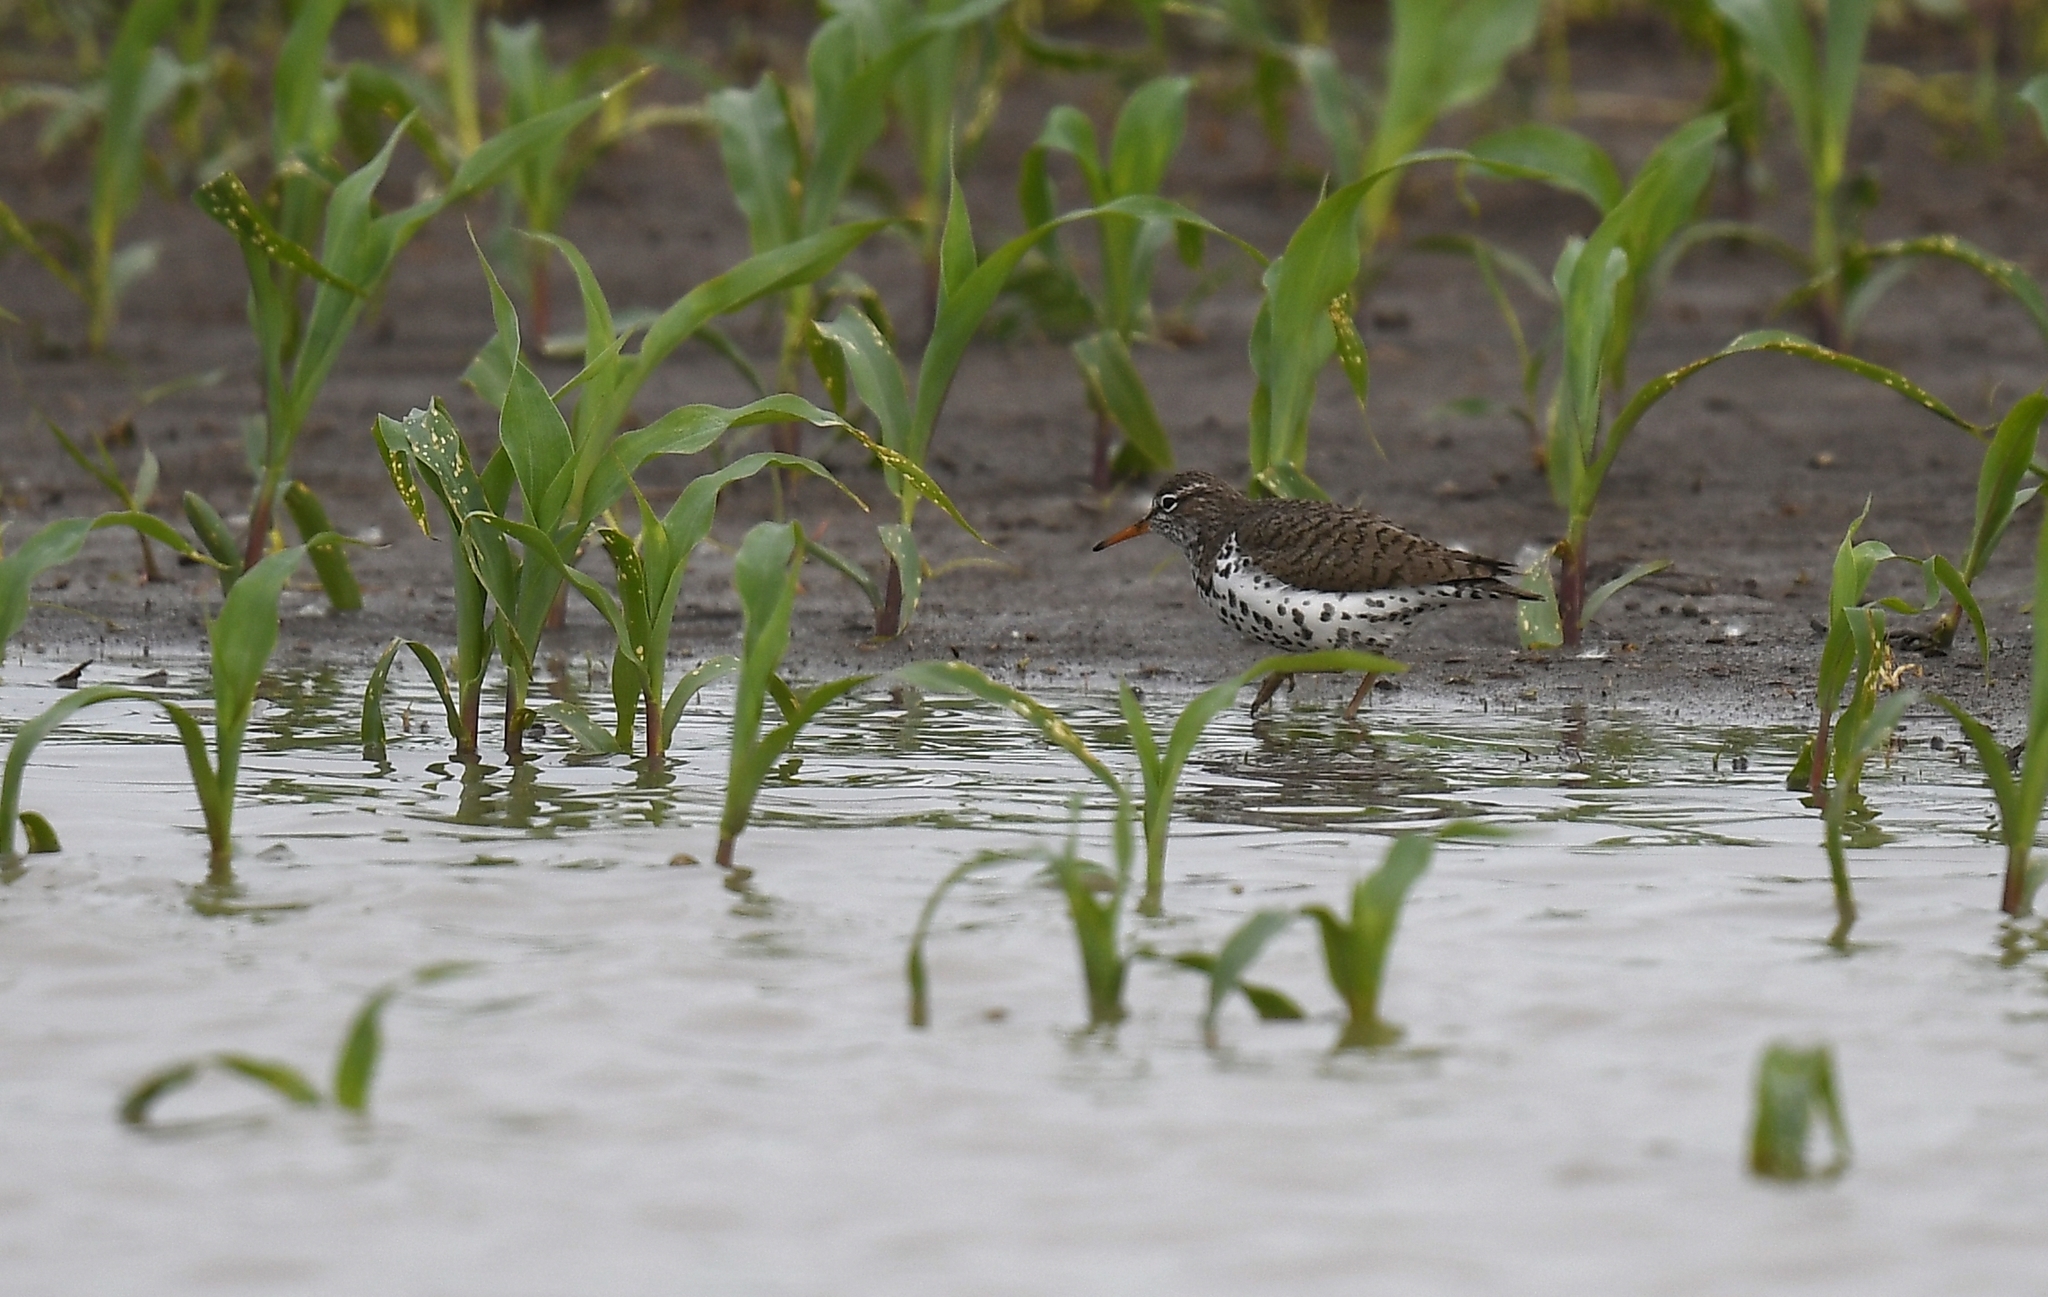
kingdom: Animalia
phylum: Chordata
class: Aves
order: Charadriiformes
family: Scolopacidae
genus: Actitis
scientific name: Actitis macularius
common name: Spotted sandpiper
